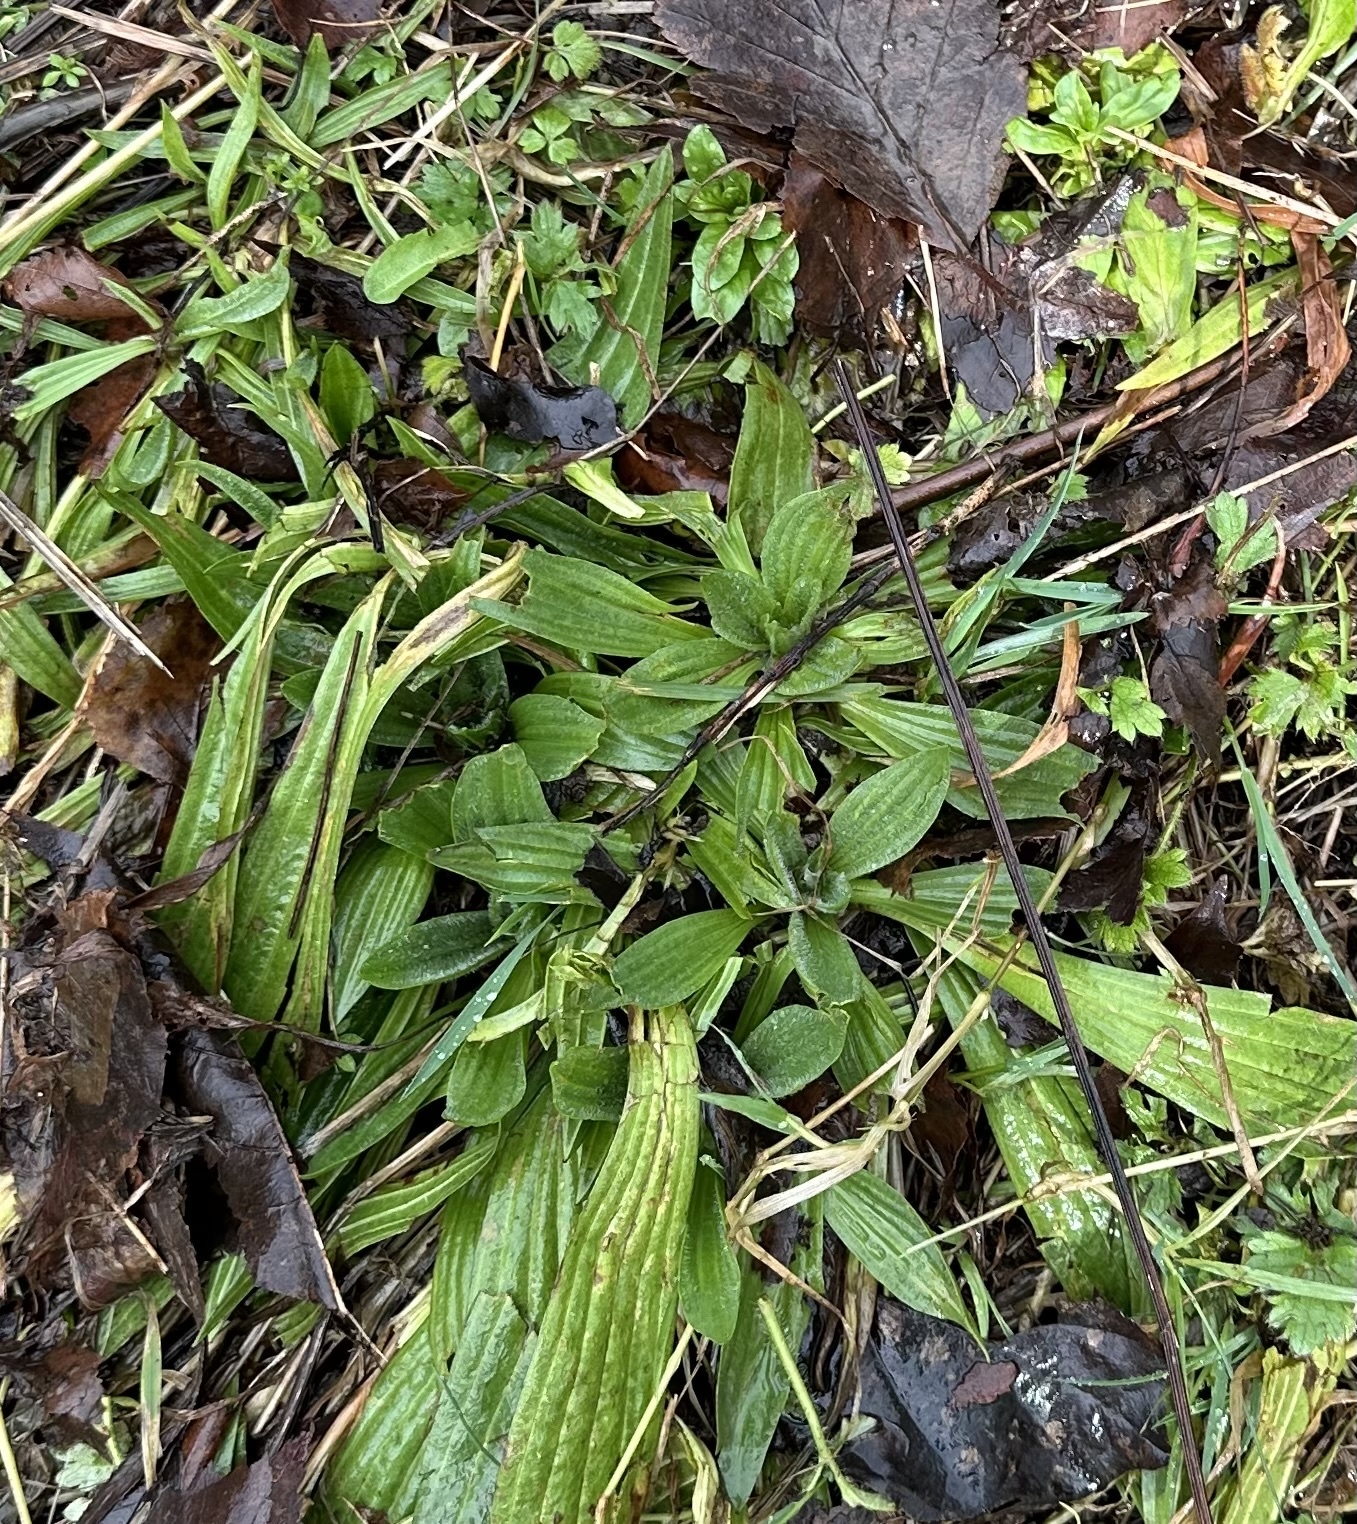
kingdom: Plantae
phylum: Tracheophyta
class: Magnoliopsida
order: Lamiales
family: Plantaginaceae
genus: Plantago
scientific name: Plantago lanceolata
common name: Ribwort plantain
